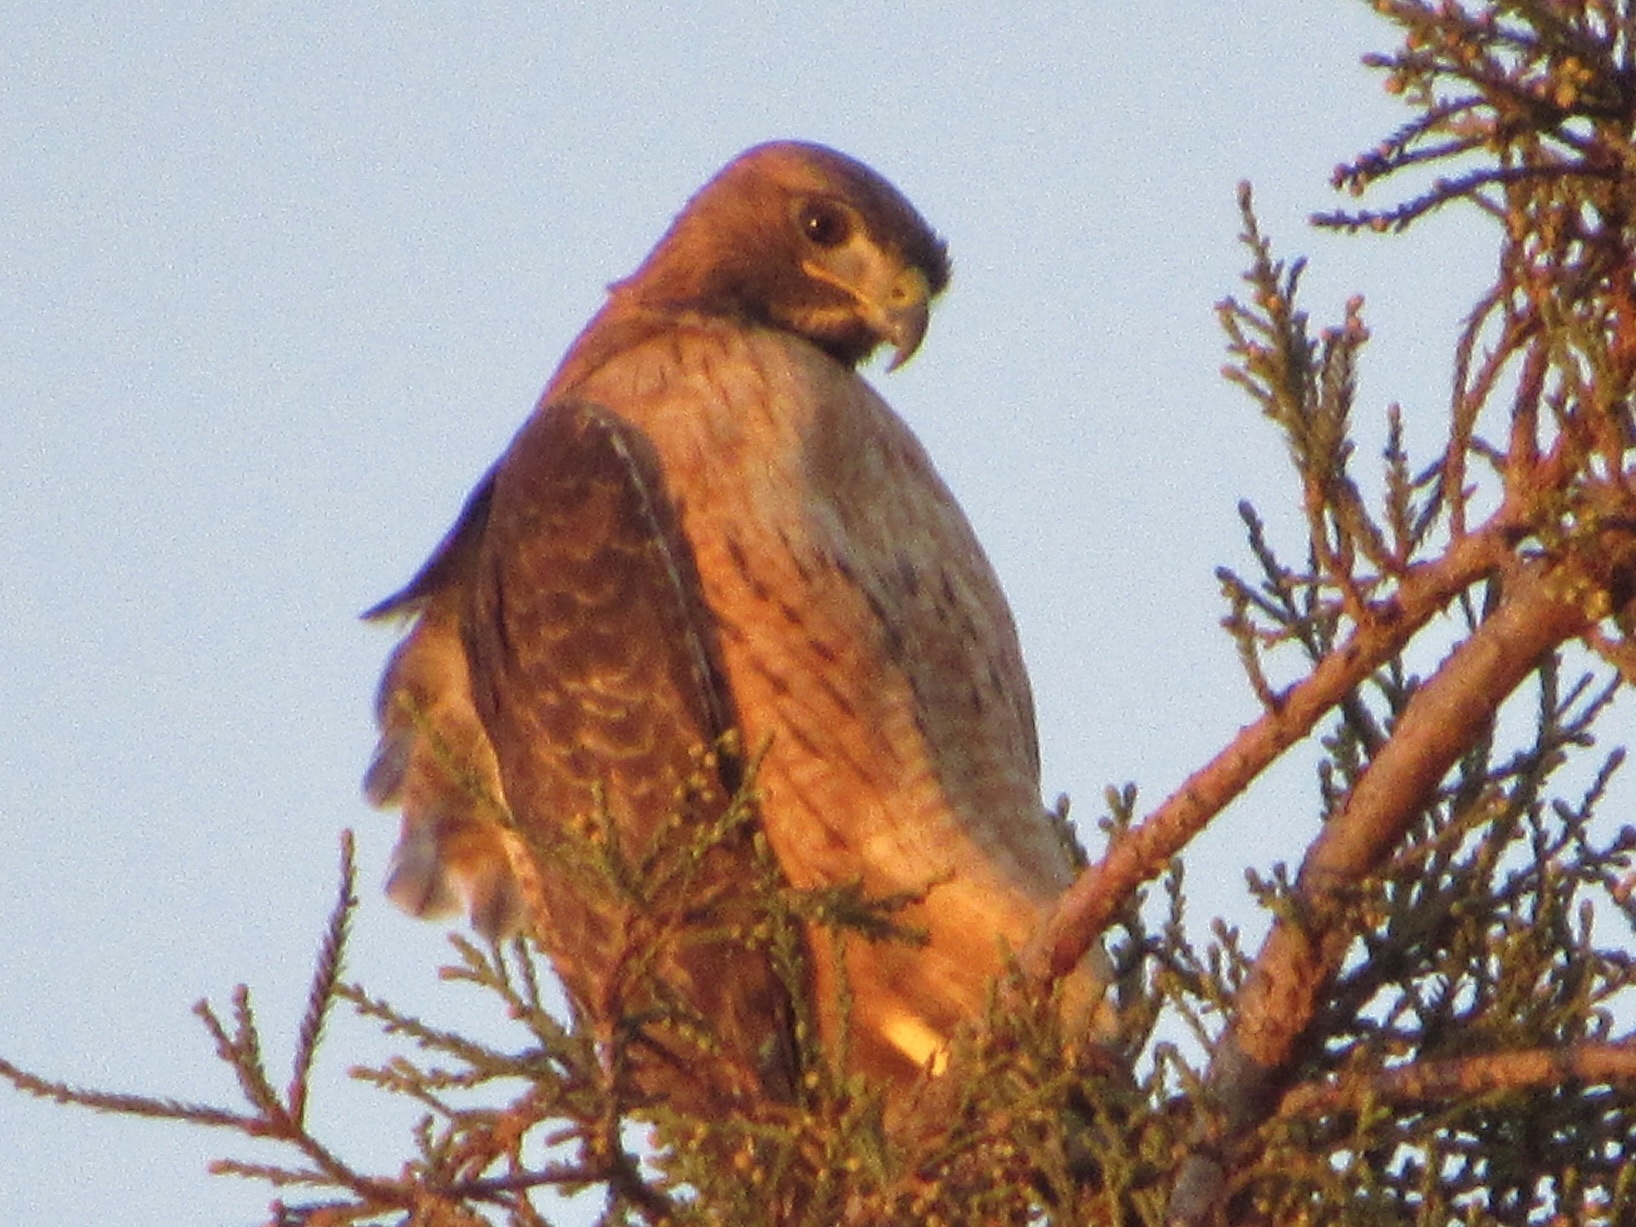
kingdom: Animalia
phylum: Chordata
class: Aves
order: Accipitriformes
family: Accipitridae
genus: Buteo
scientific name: Buteo jamaicensis
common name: Red-tailed hawk
